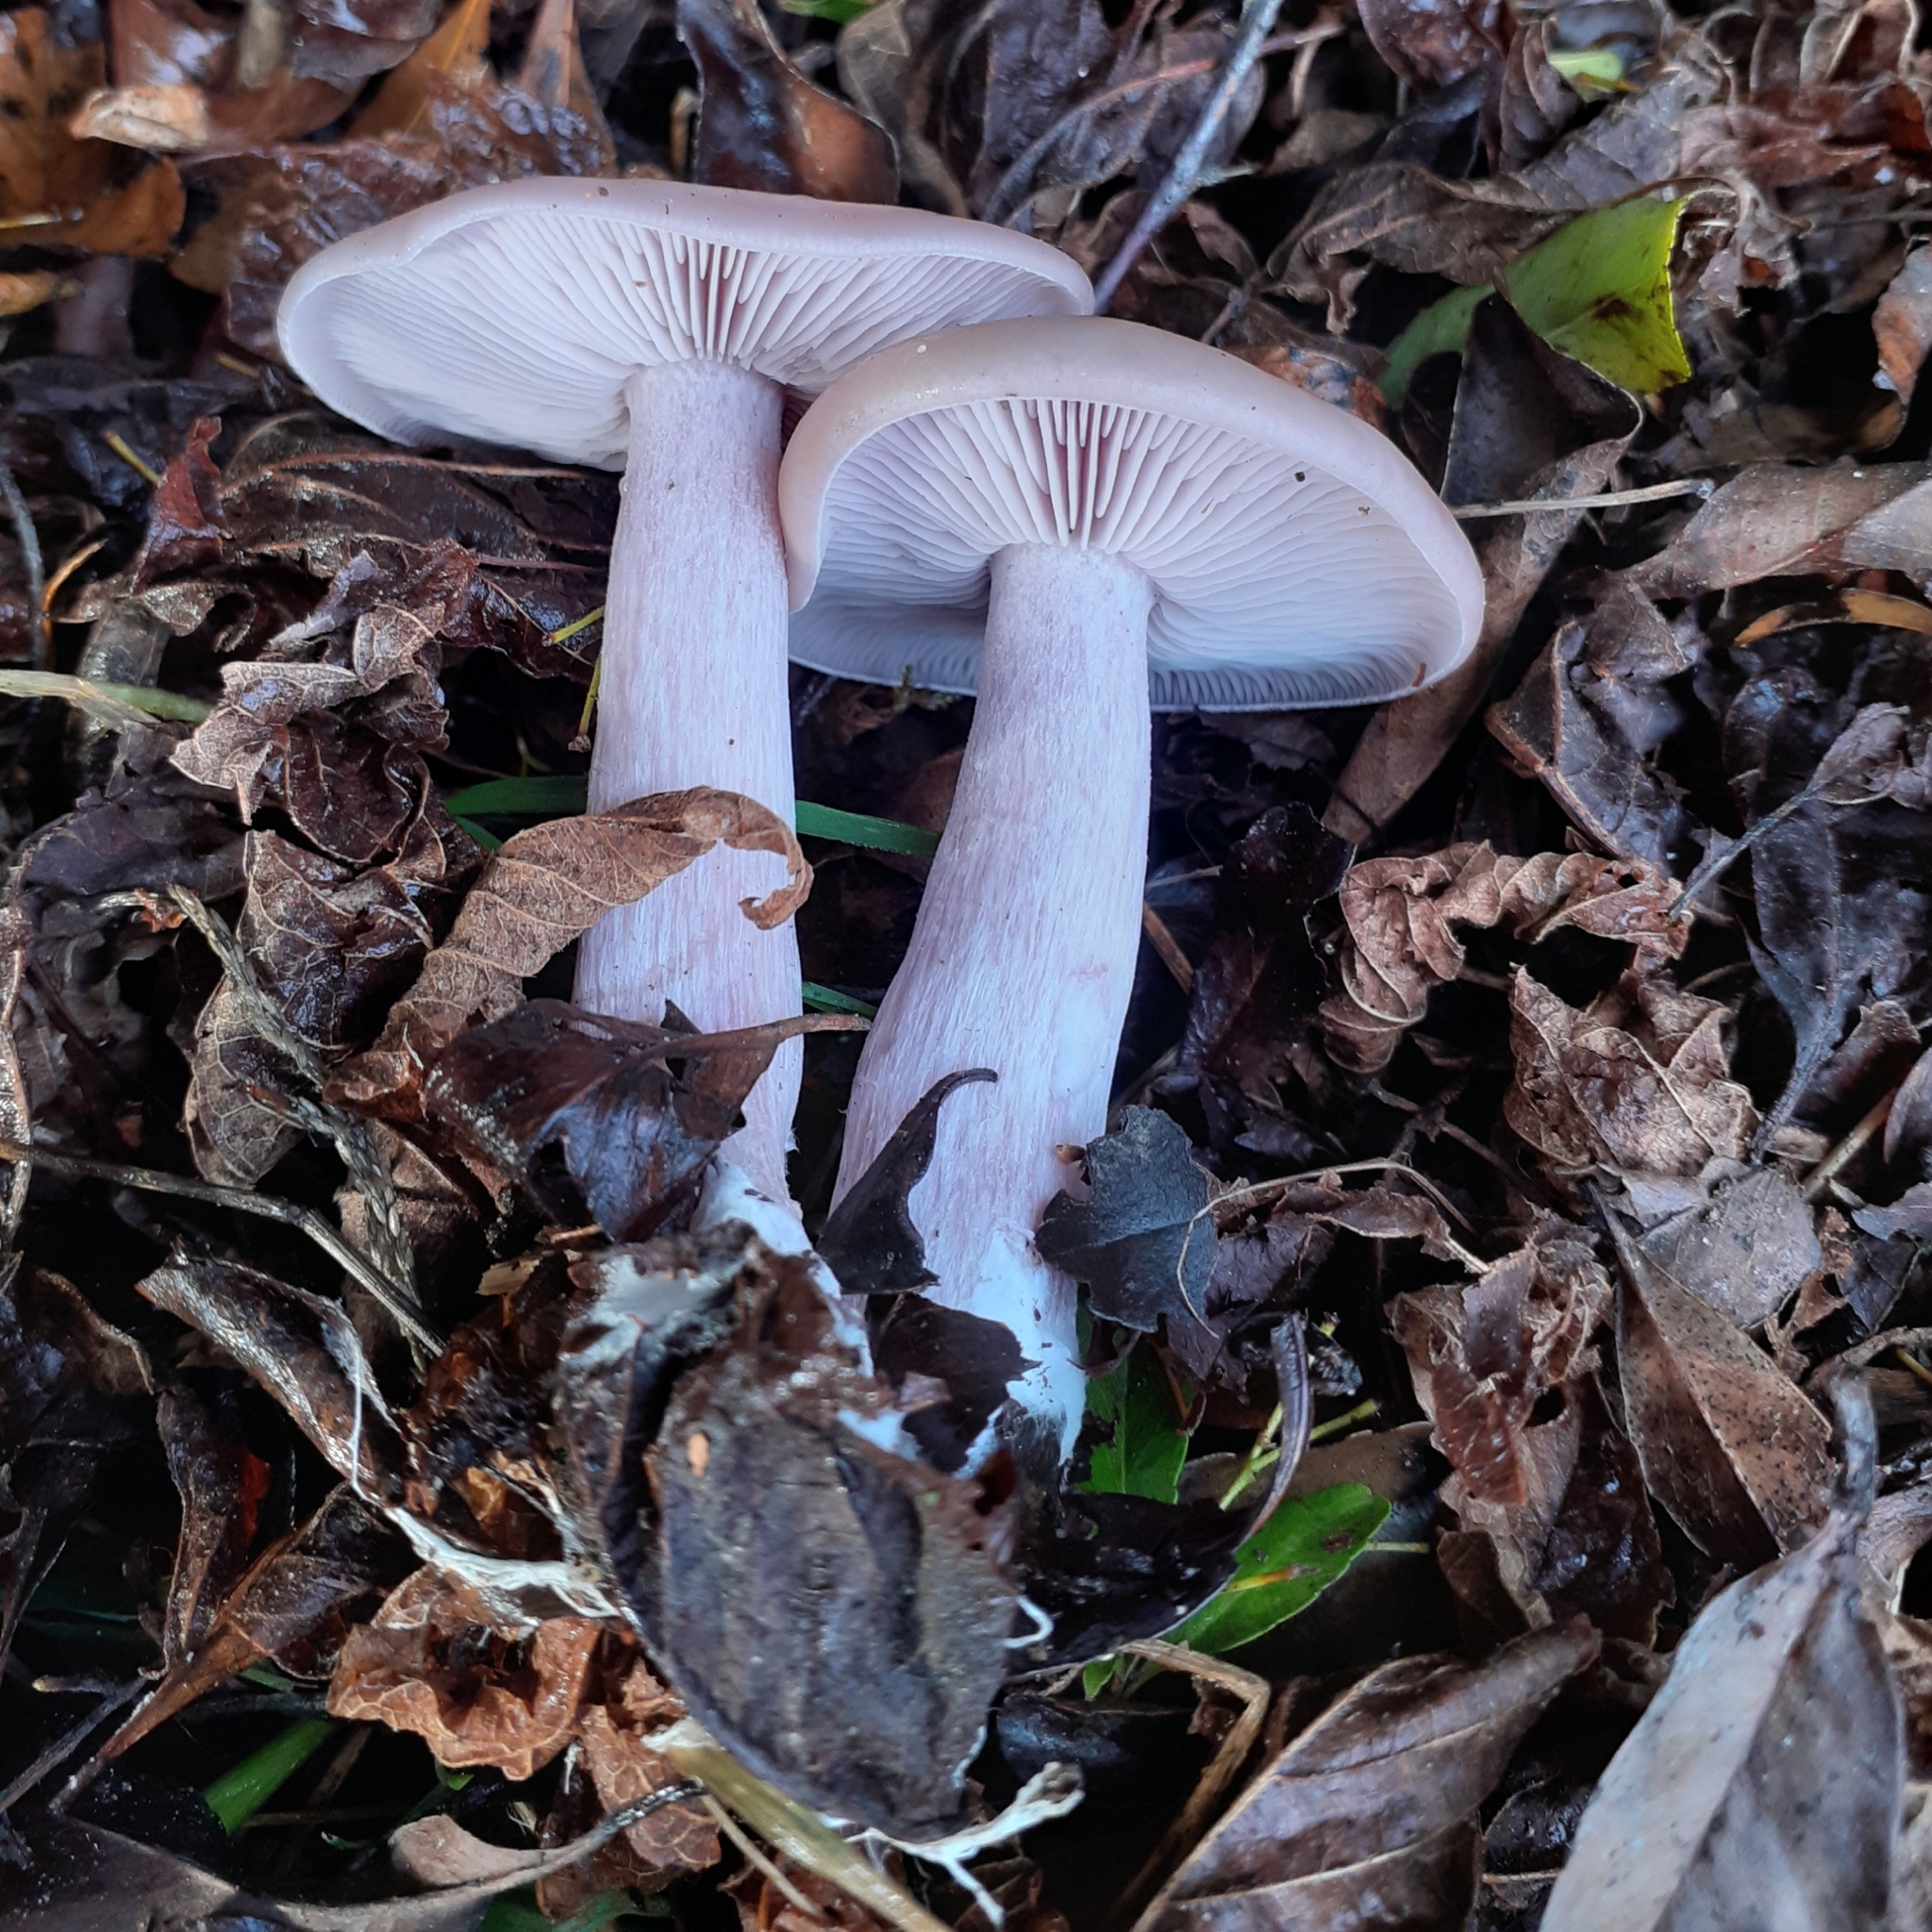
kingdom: Fungi
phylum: Basidiomycota
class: Agaricomycetes
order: Agaricales
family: Tricholomataceae
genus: Collybia
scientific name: Collybia
